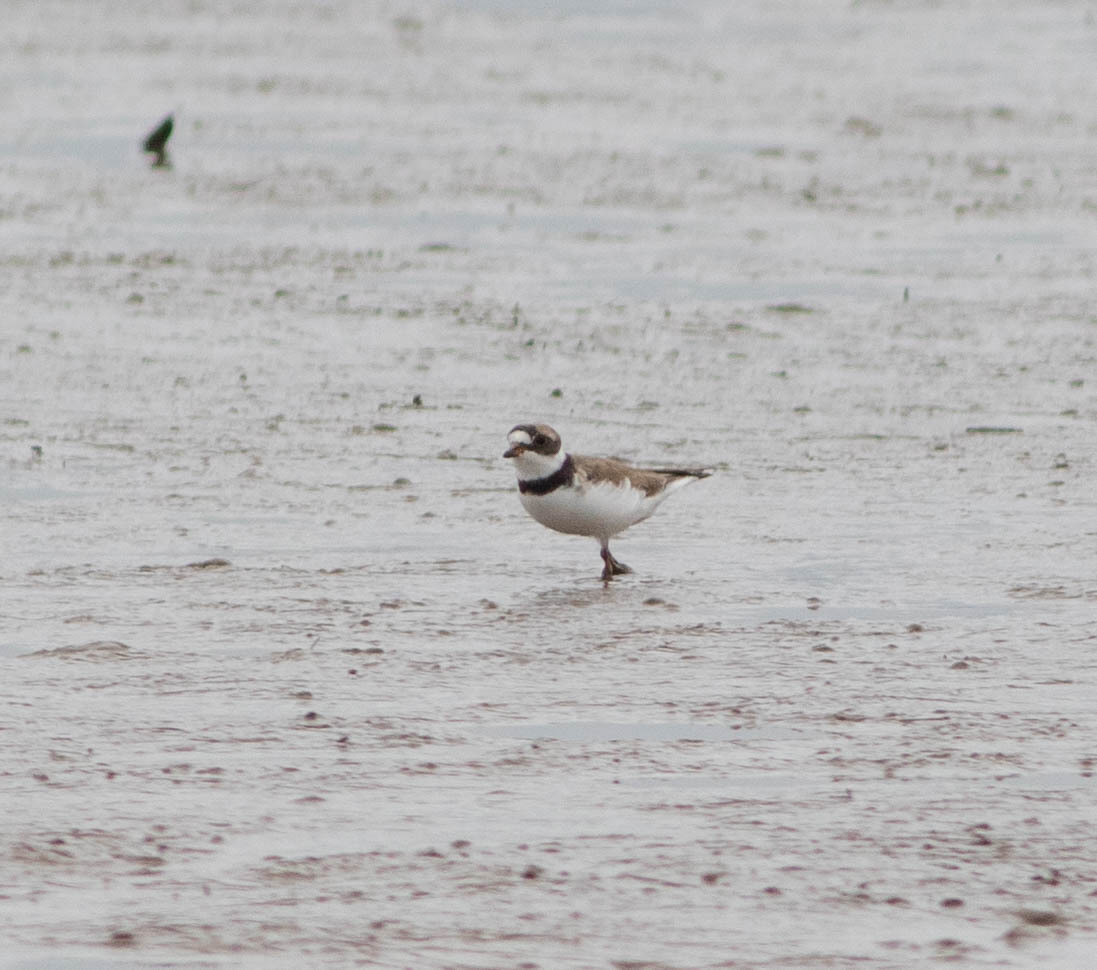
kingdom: Animalia
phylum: Chordata
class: Aves
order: Charadriiformes
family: Charadriidae
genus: Charadrius
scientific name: Charadrius semipalmatus
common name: Semipalmated plover
